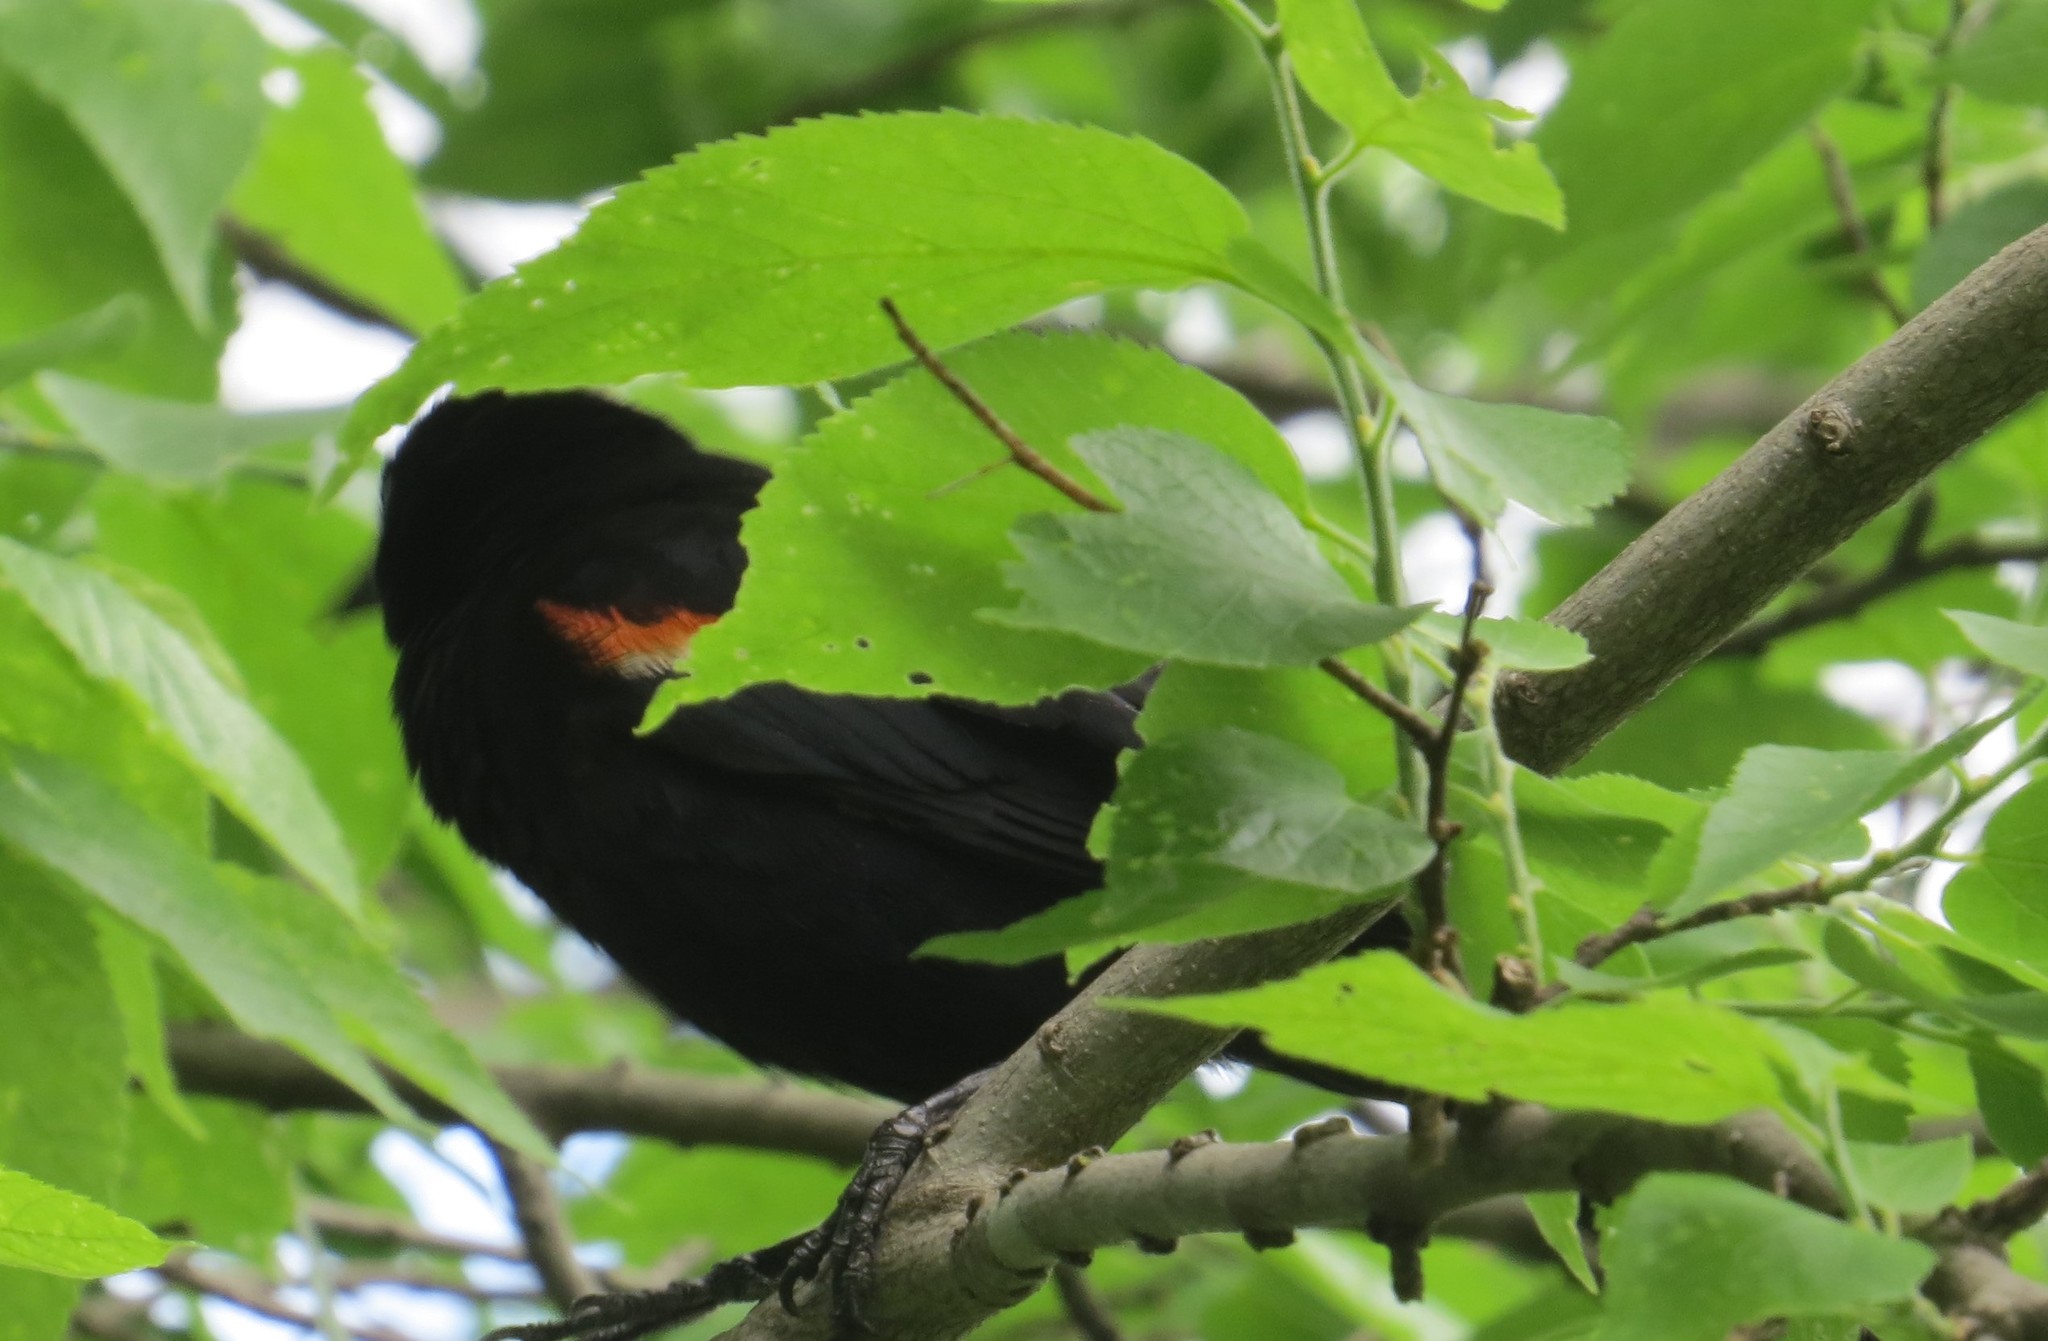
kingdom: Animalia
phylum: Chordata
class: Aves
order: Passeriformes
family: Icteridae
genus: Agelaius
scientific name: Agelaius phoeniceus
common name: Red-winged blackbird
